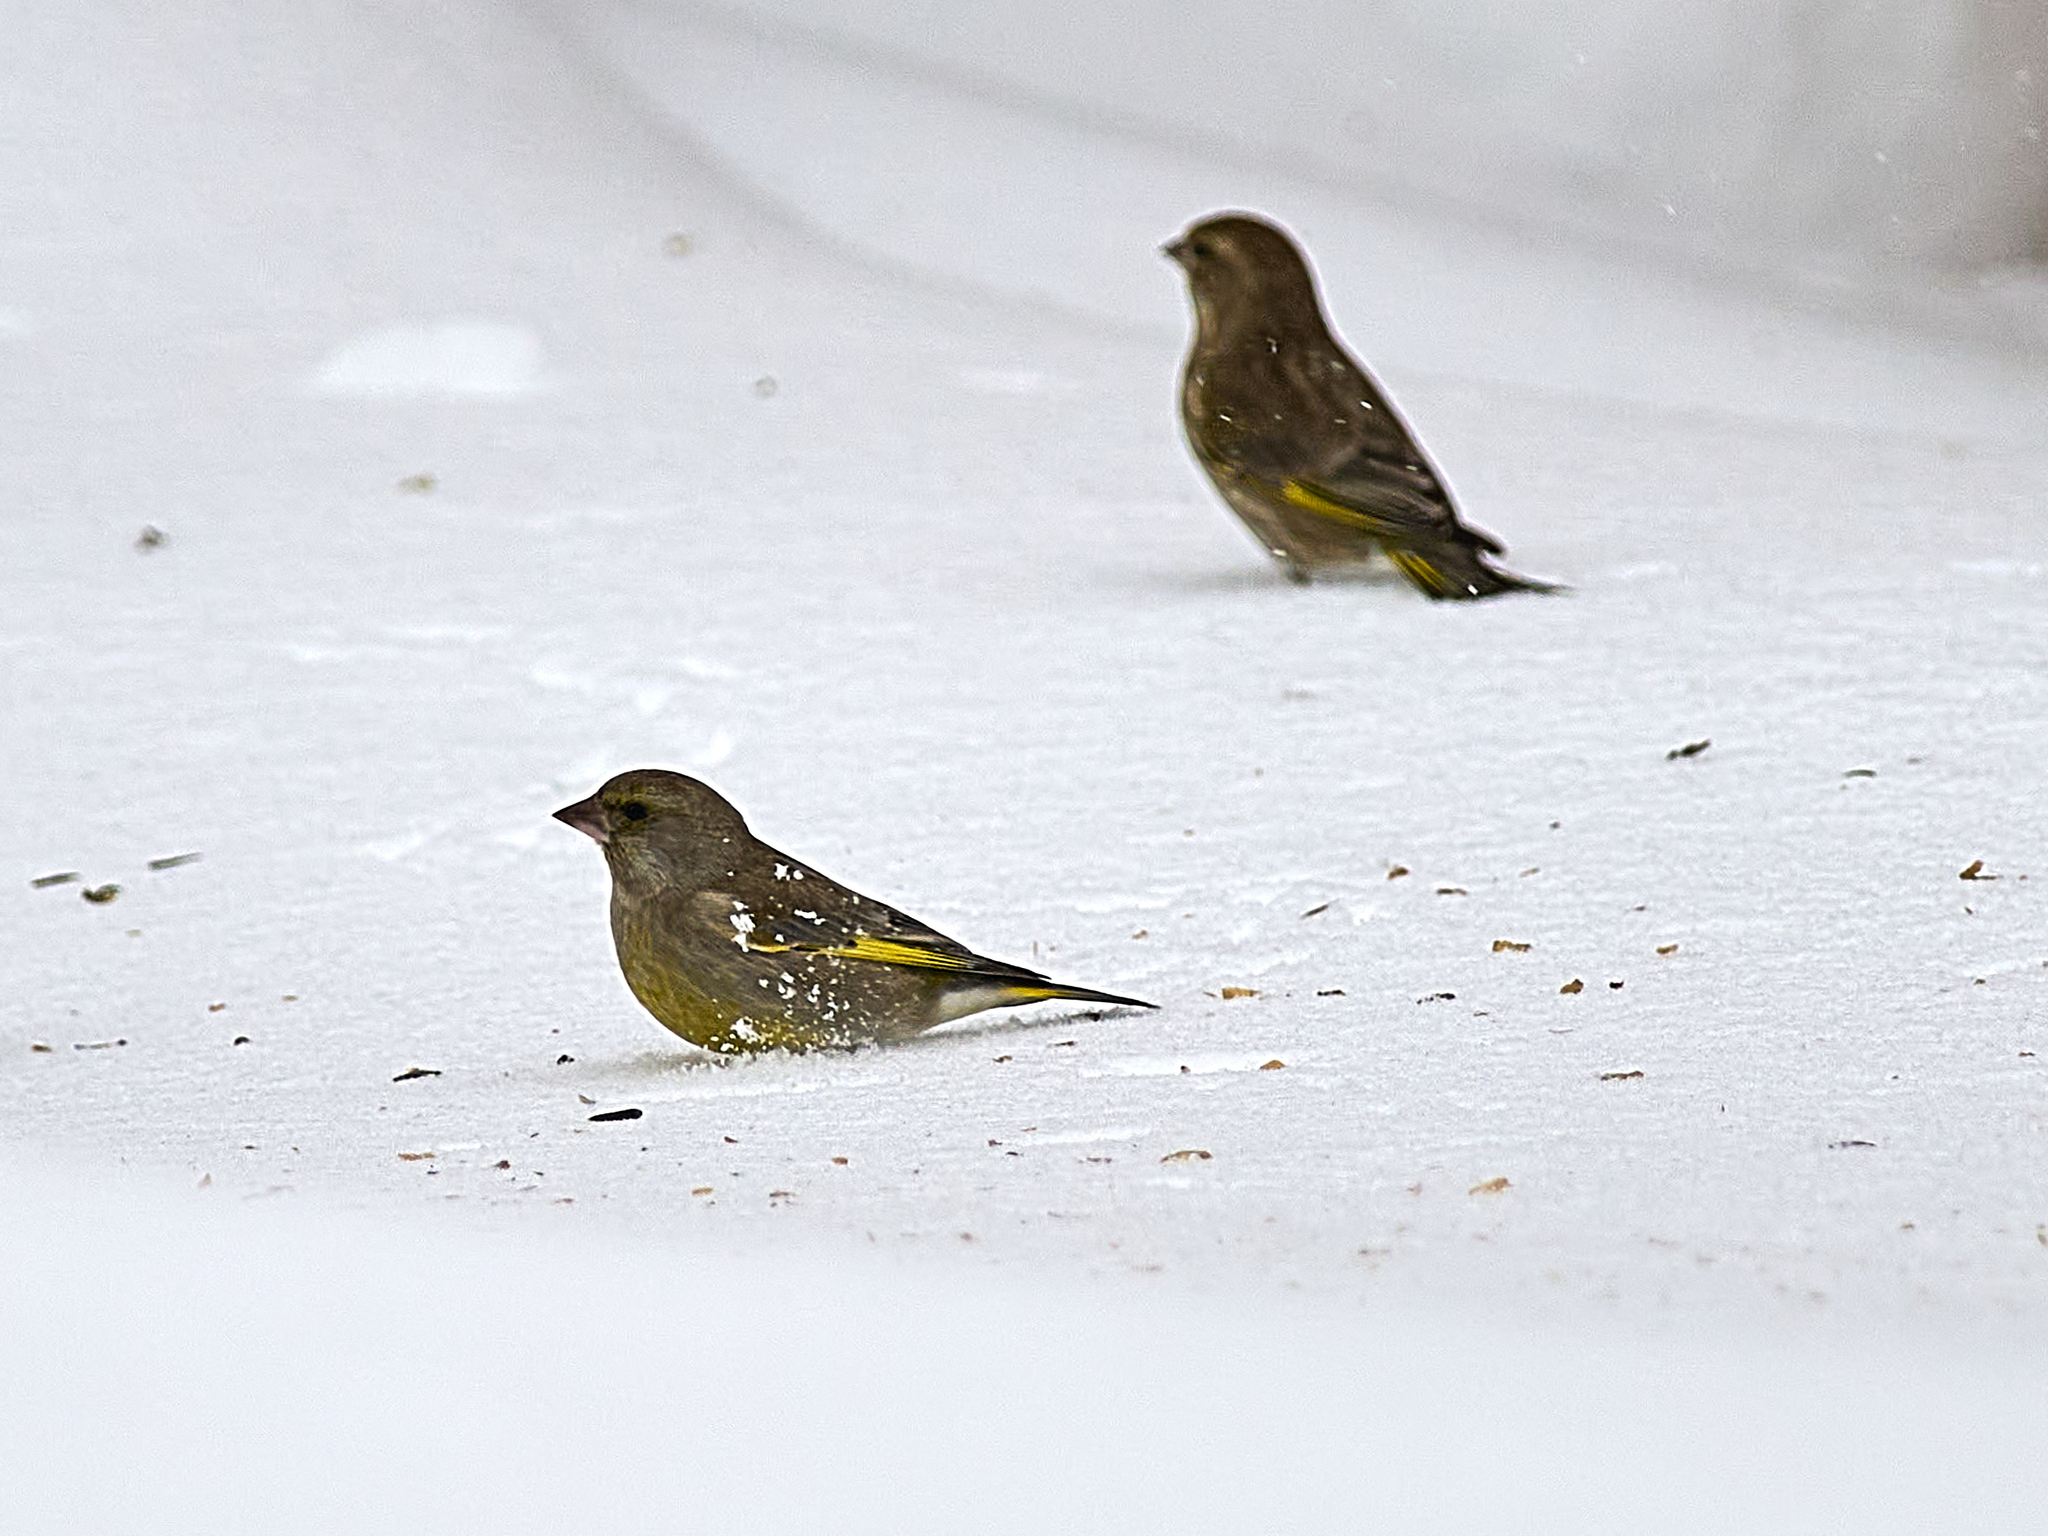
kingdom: Plantae
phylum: Tracheophyta
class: Liliopsida
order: Poales
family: Poaceae
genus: Chloris
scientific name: Chloris chloris
